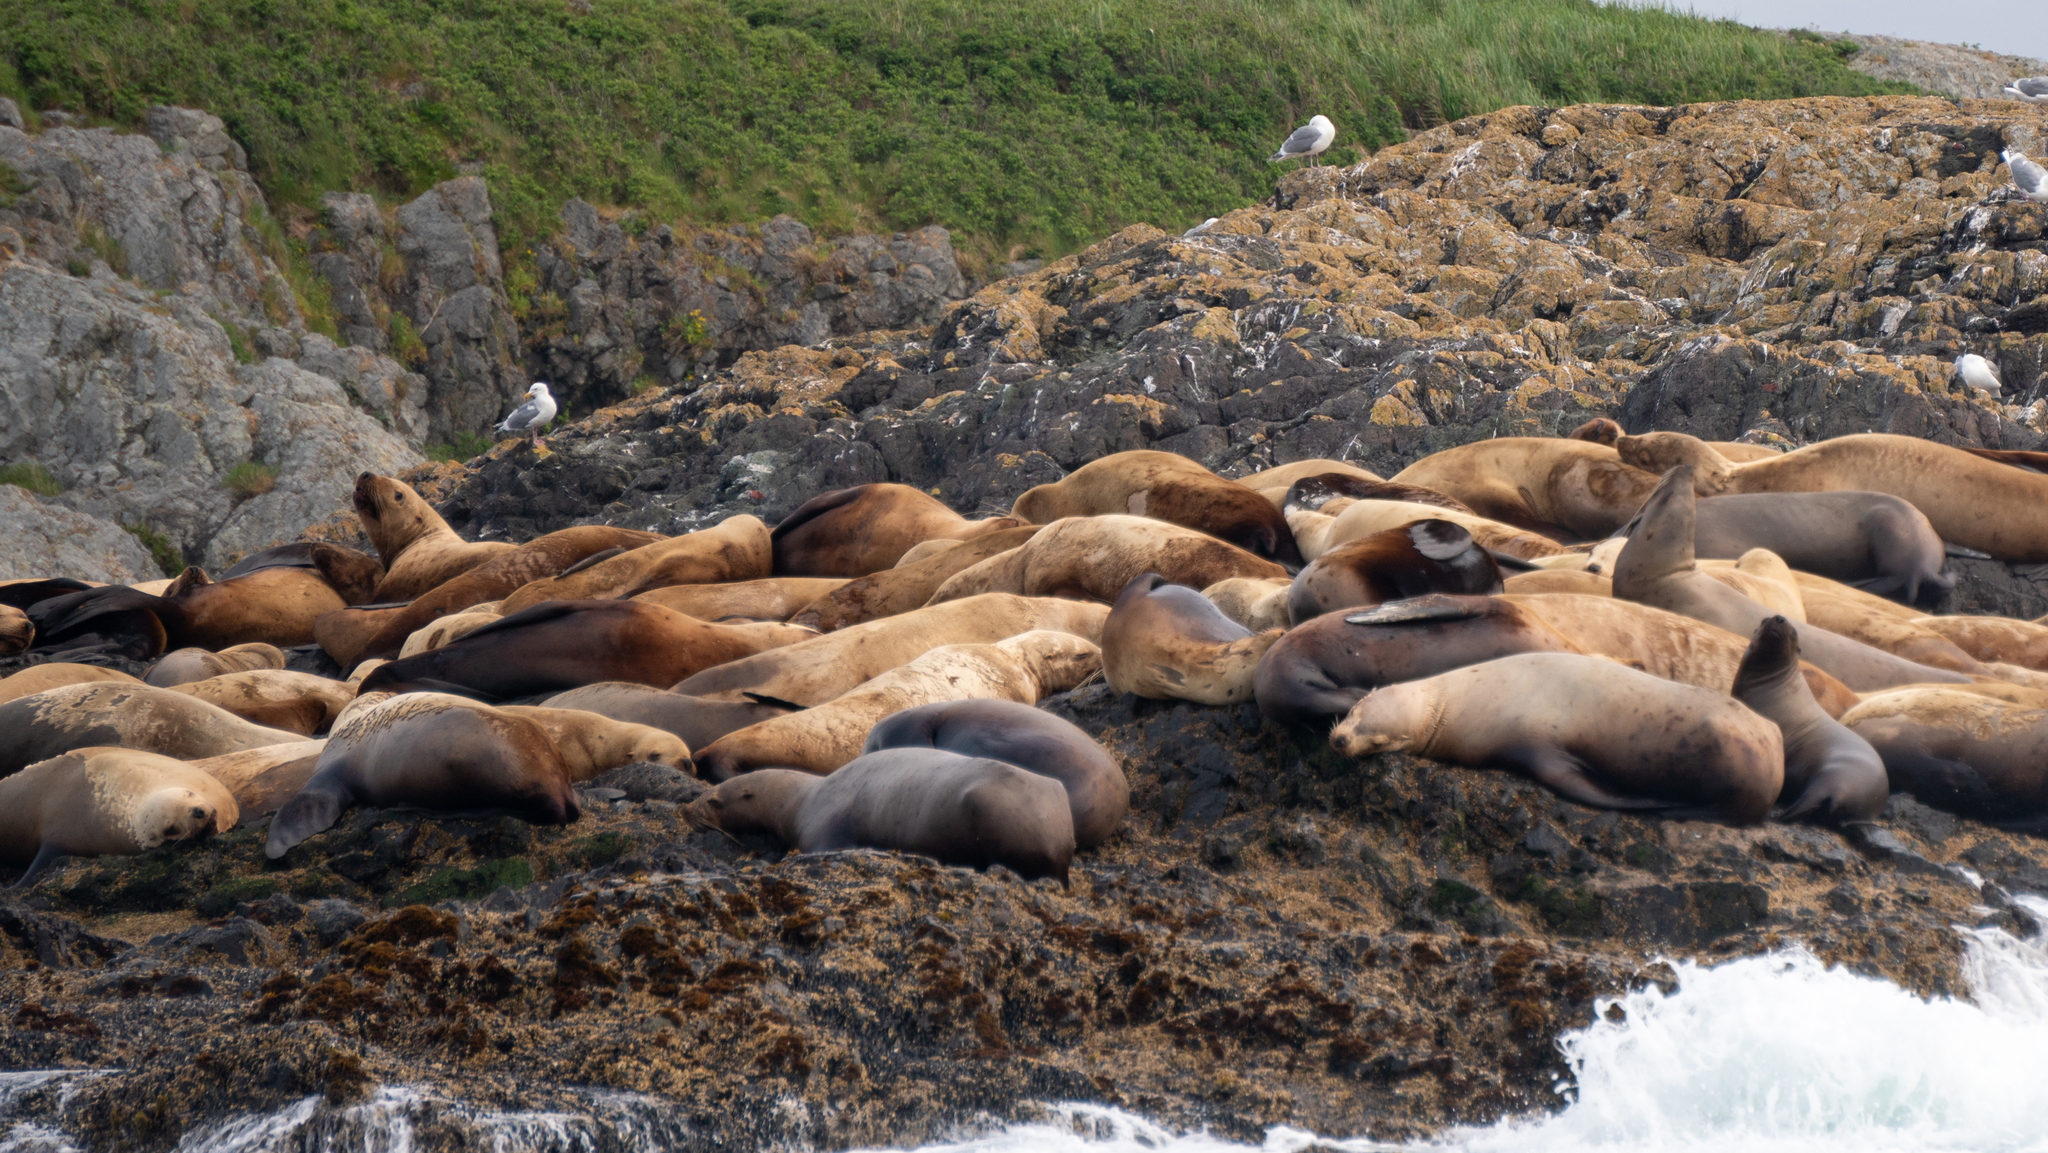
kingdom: Animalia
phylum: Chordata
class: Mammalia
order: Carnivora
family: Otariidae
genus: Eumetopias
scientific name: Eumetopias jubatus
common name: Steller sea lion
